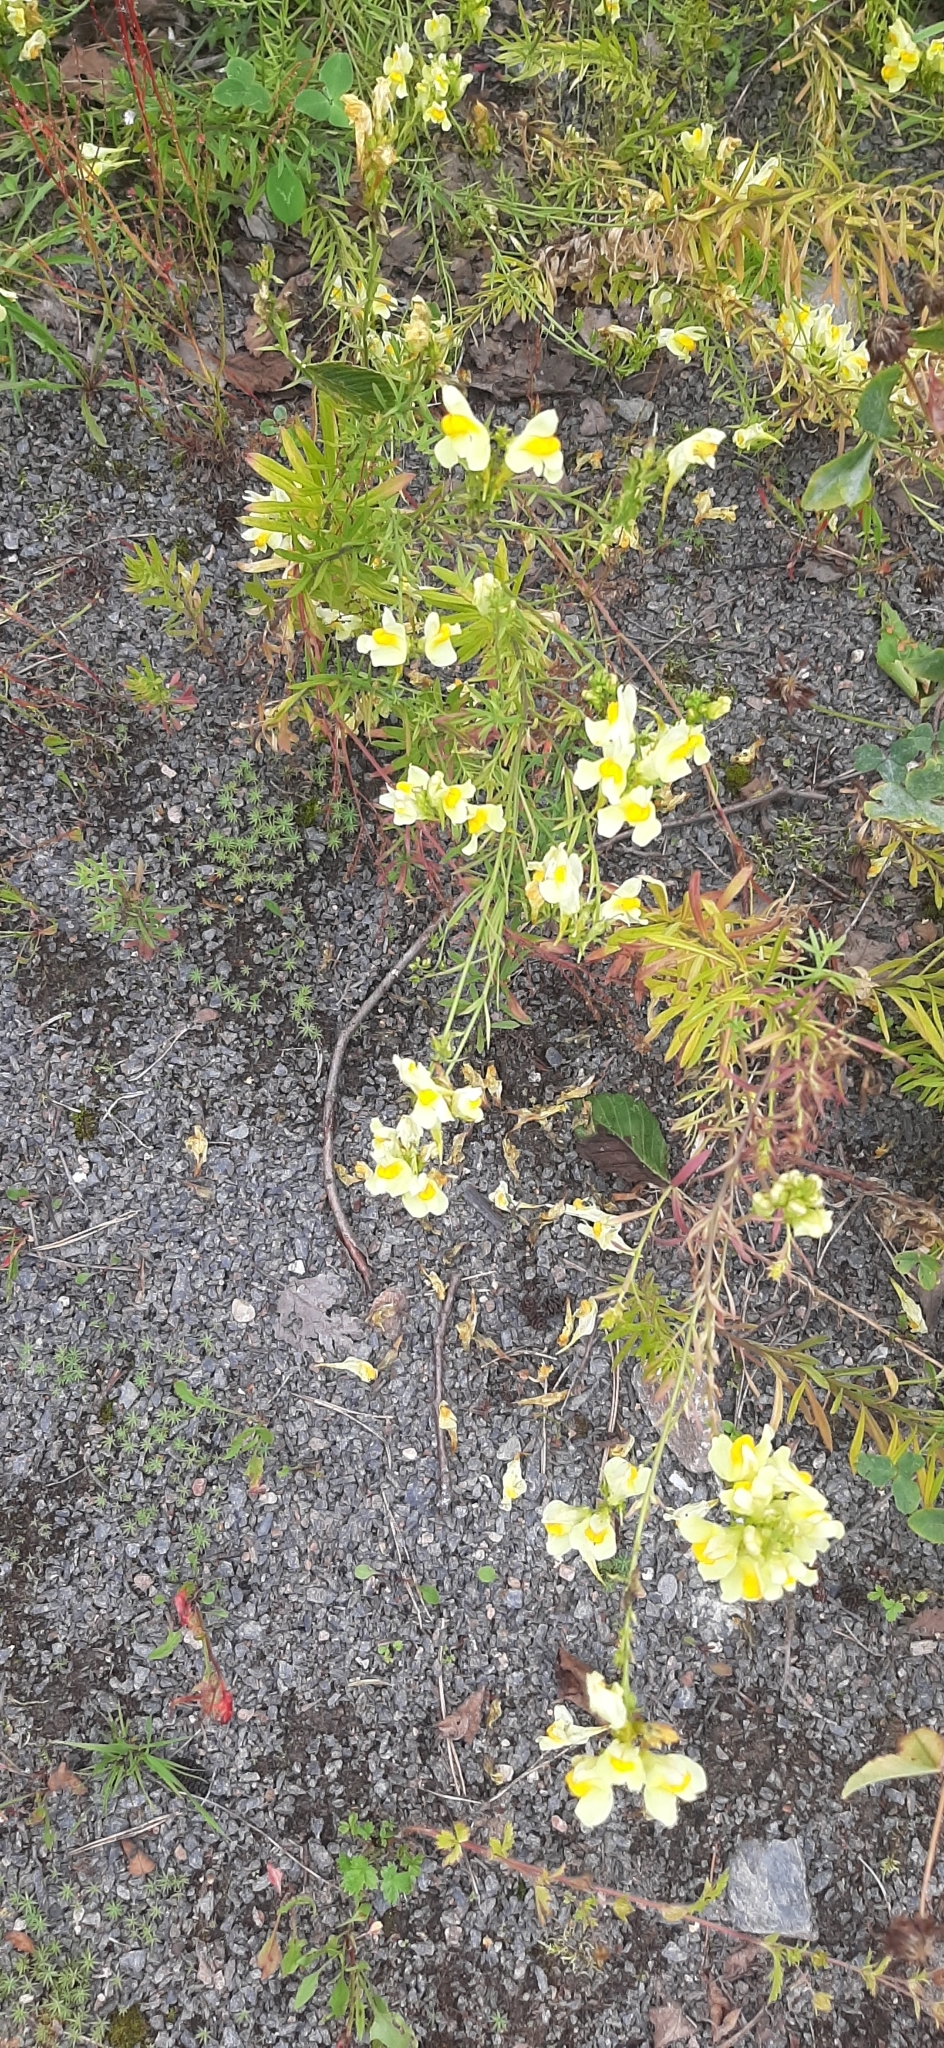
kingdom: Plantae
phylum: Tracheophyta
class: Magnoliopsida
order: Lamiales
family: Plantaginaceae
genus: Linaria
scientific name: Linaria vulgaris
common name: Butter and eggs
